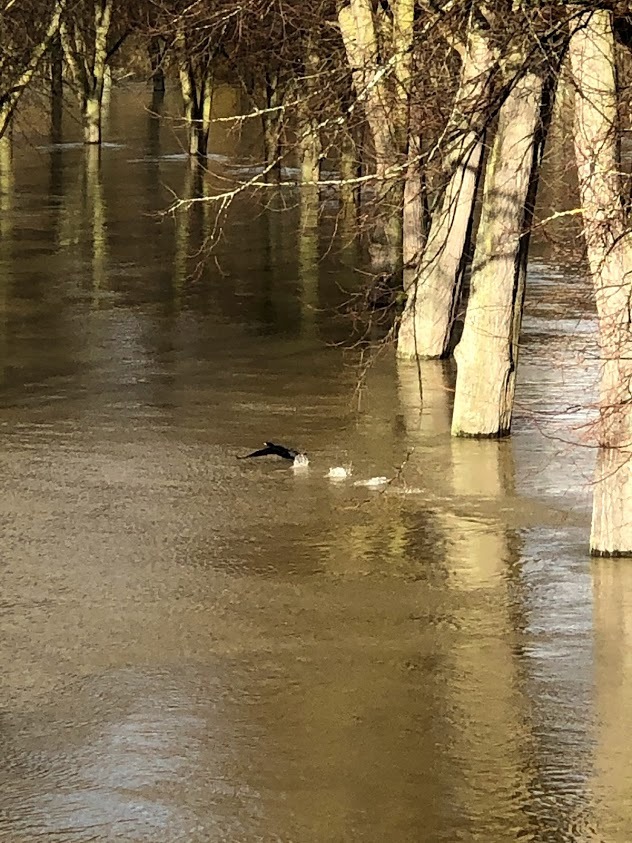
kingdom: Animalia
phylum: Chordata
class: Aves
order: Suliformes
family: Phalacrocoracidae
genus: Phalacrocorax
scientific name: Phalacrocorax carbo
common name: Great cormorant
